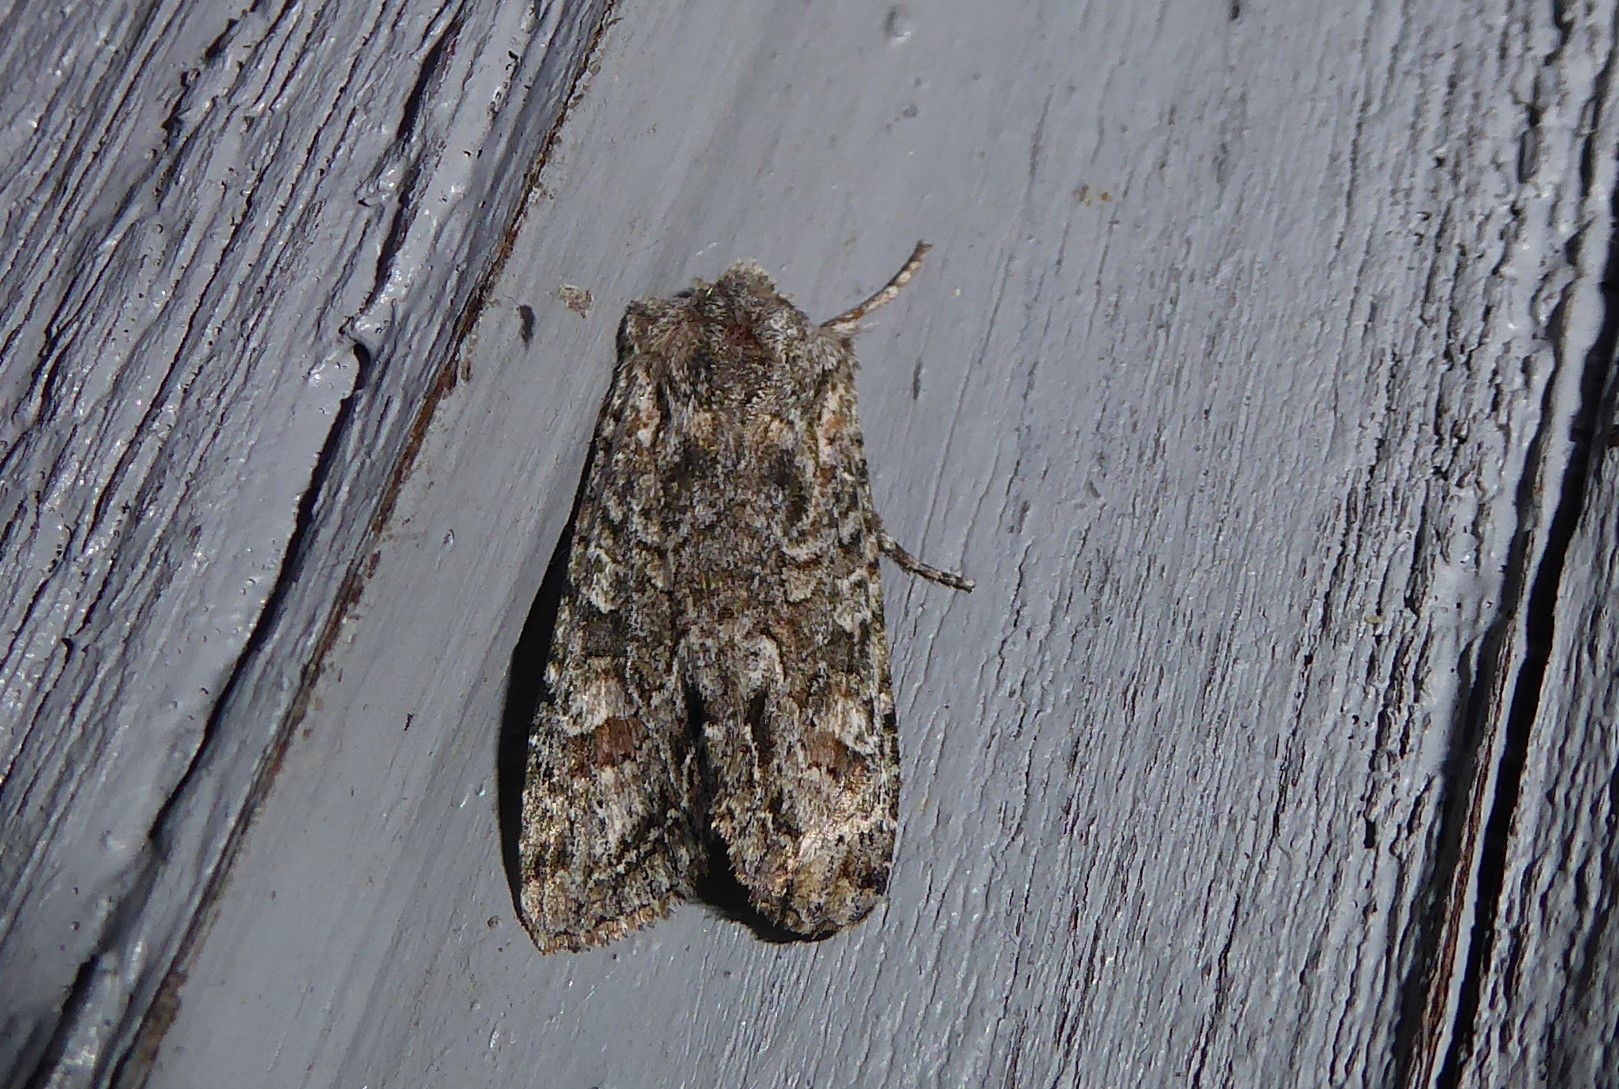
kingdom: Animalia
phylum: Arthropoda
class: Insecta
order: Lepidoptera
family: Noctuidae
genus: Ichneutica
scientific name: Ichneutica mutans
